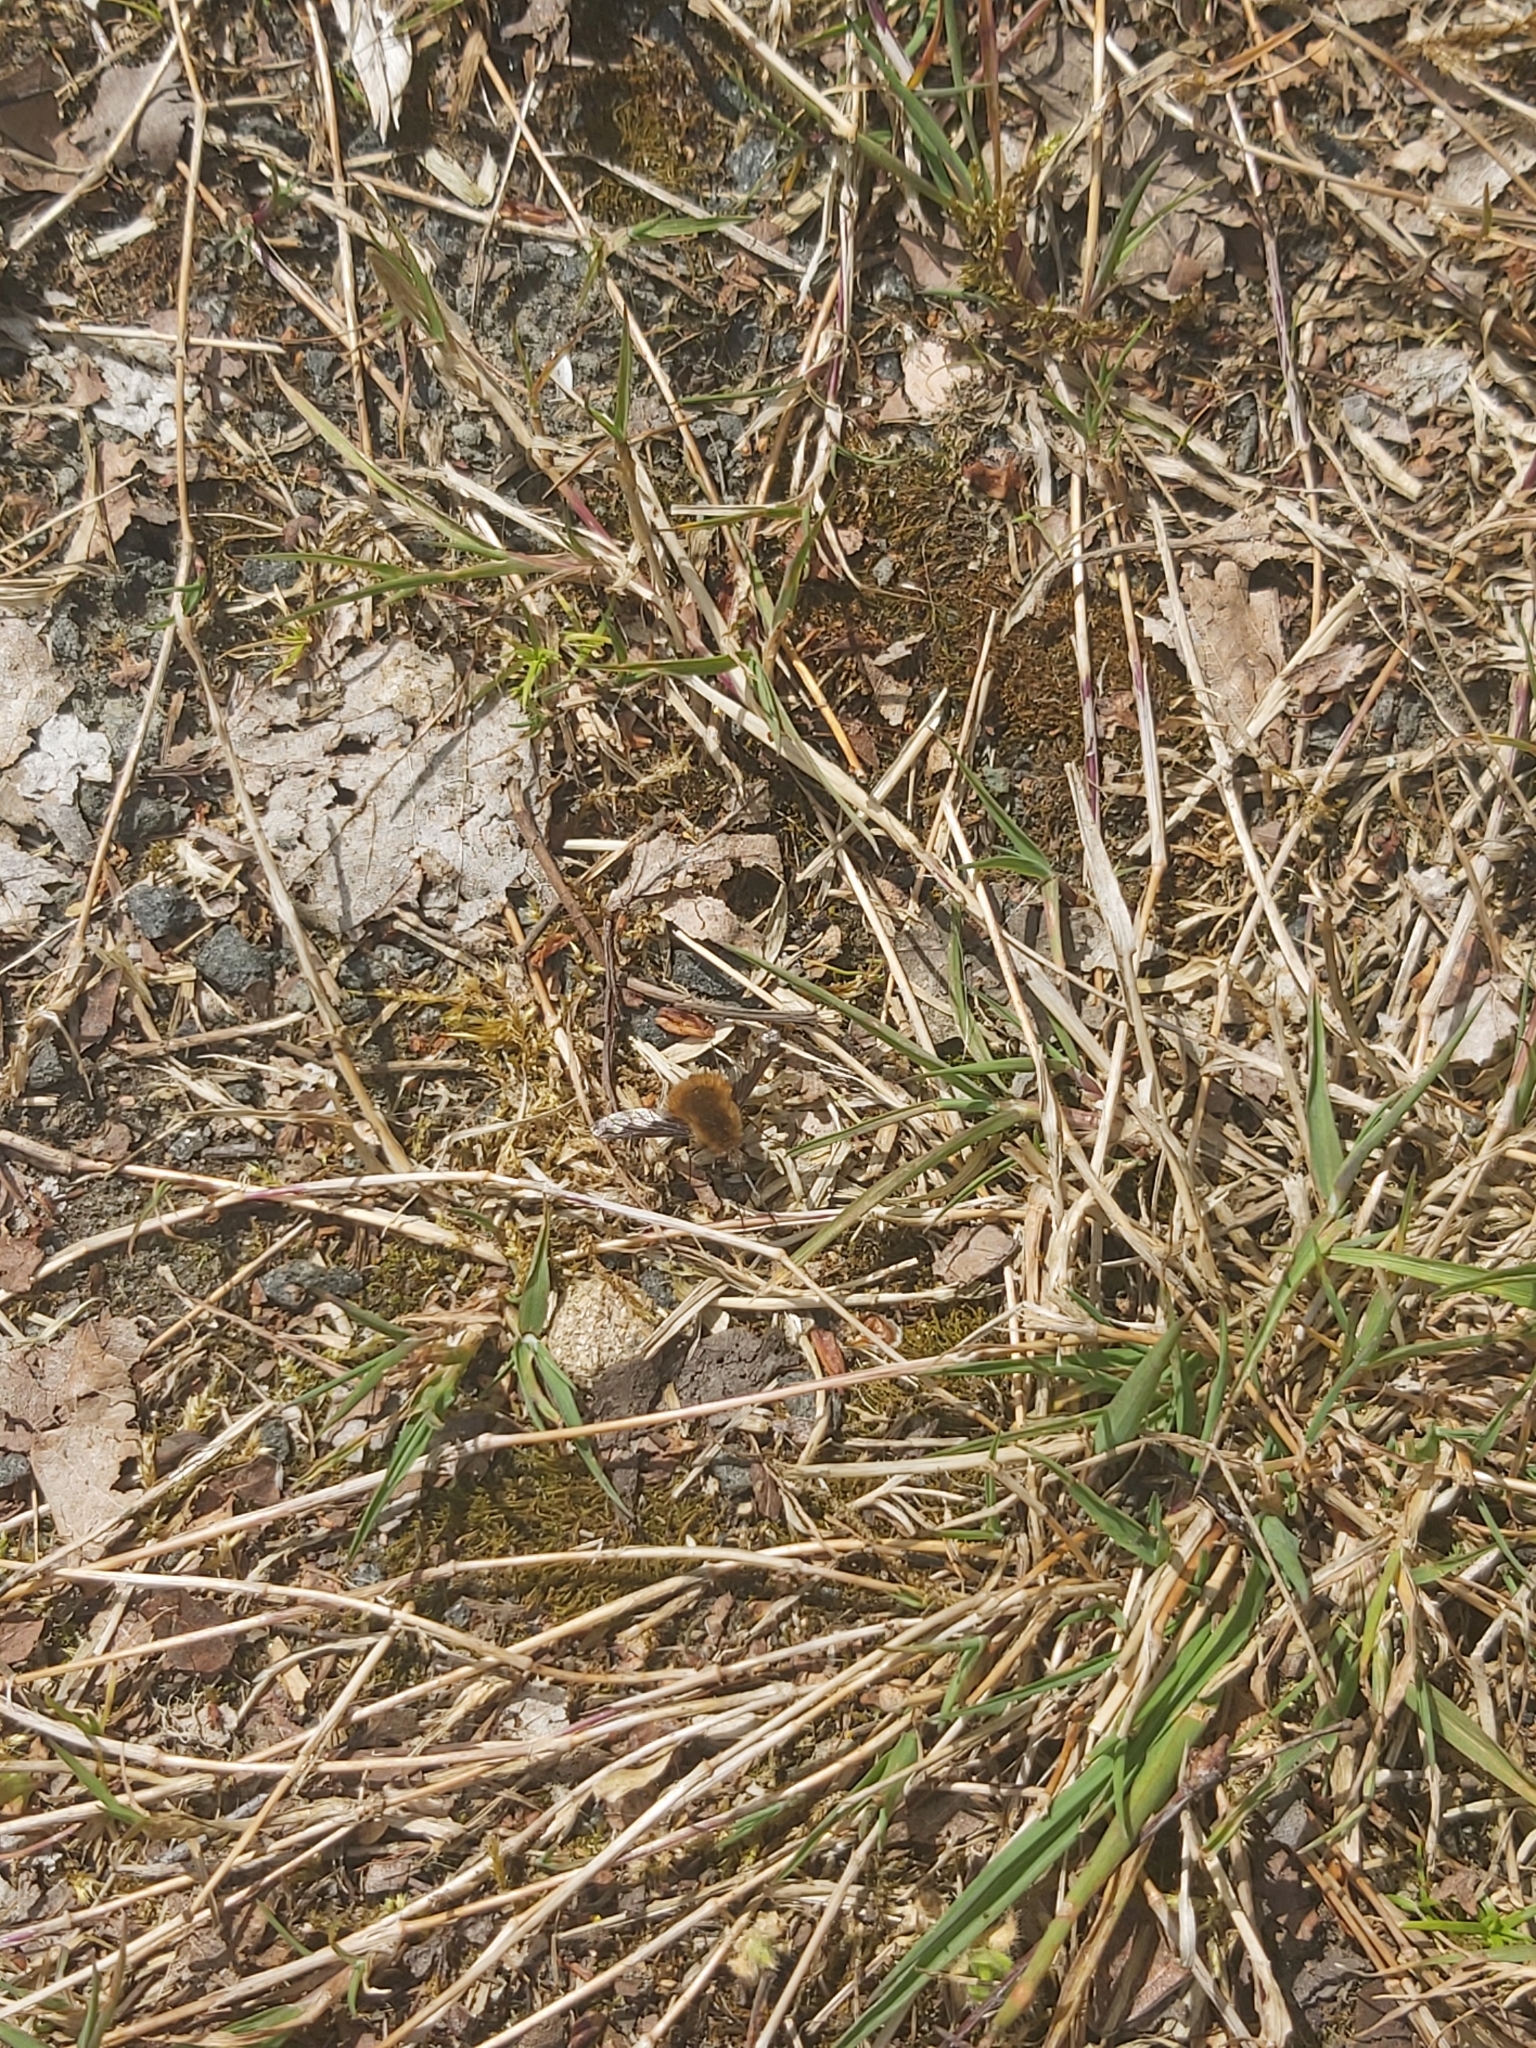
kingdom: Animalia
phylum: Arthropoda
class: Insecta
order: Diptera
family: Bombyliidae
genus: Bombylius
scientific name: Bombylius major
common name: Bee fly
